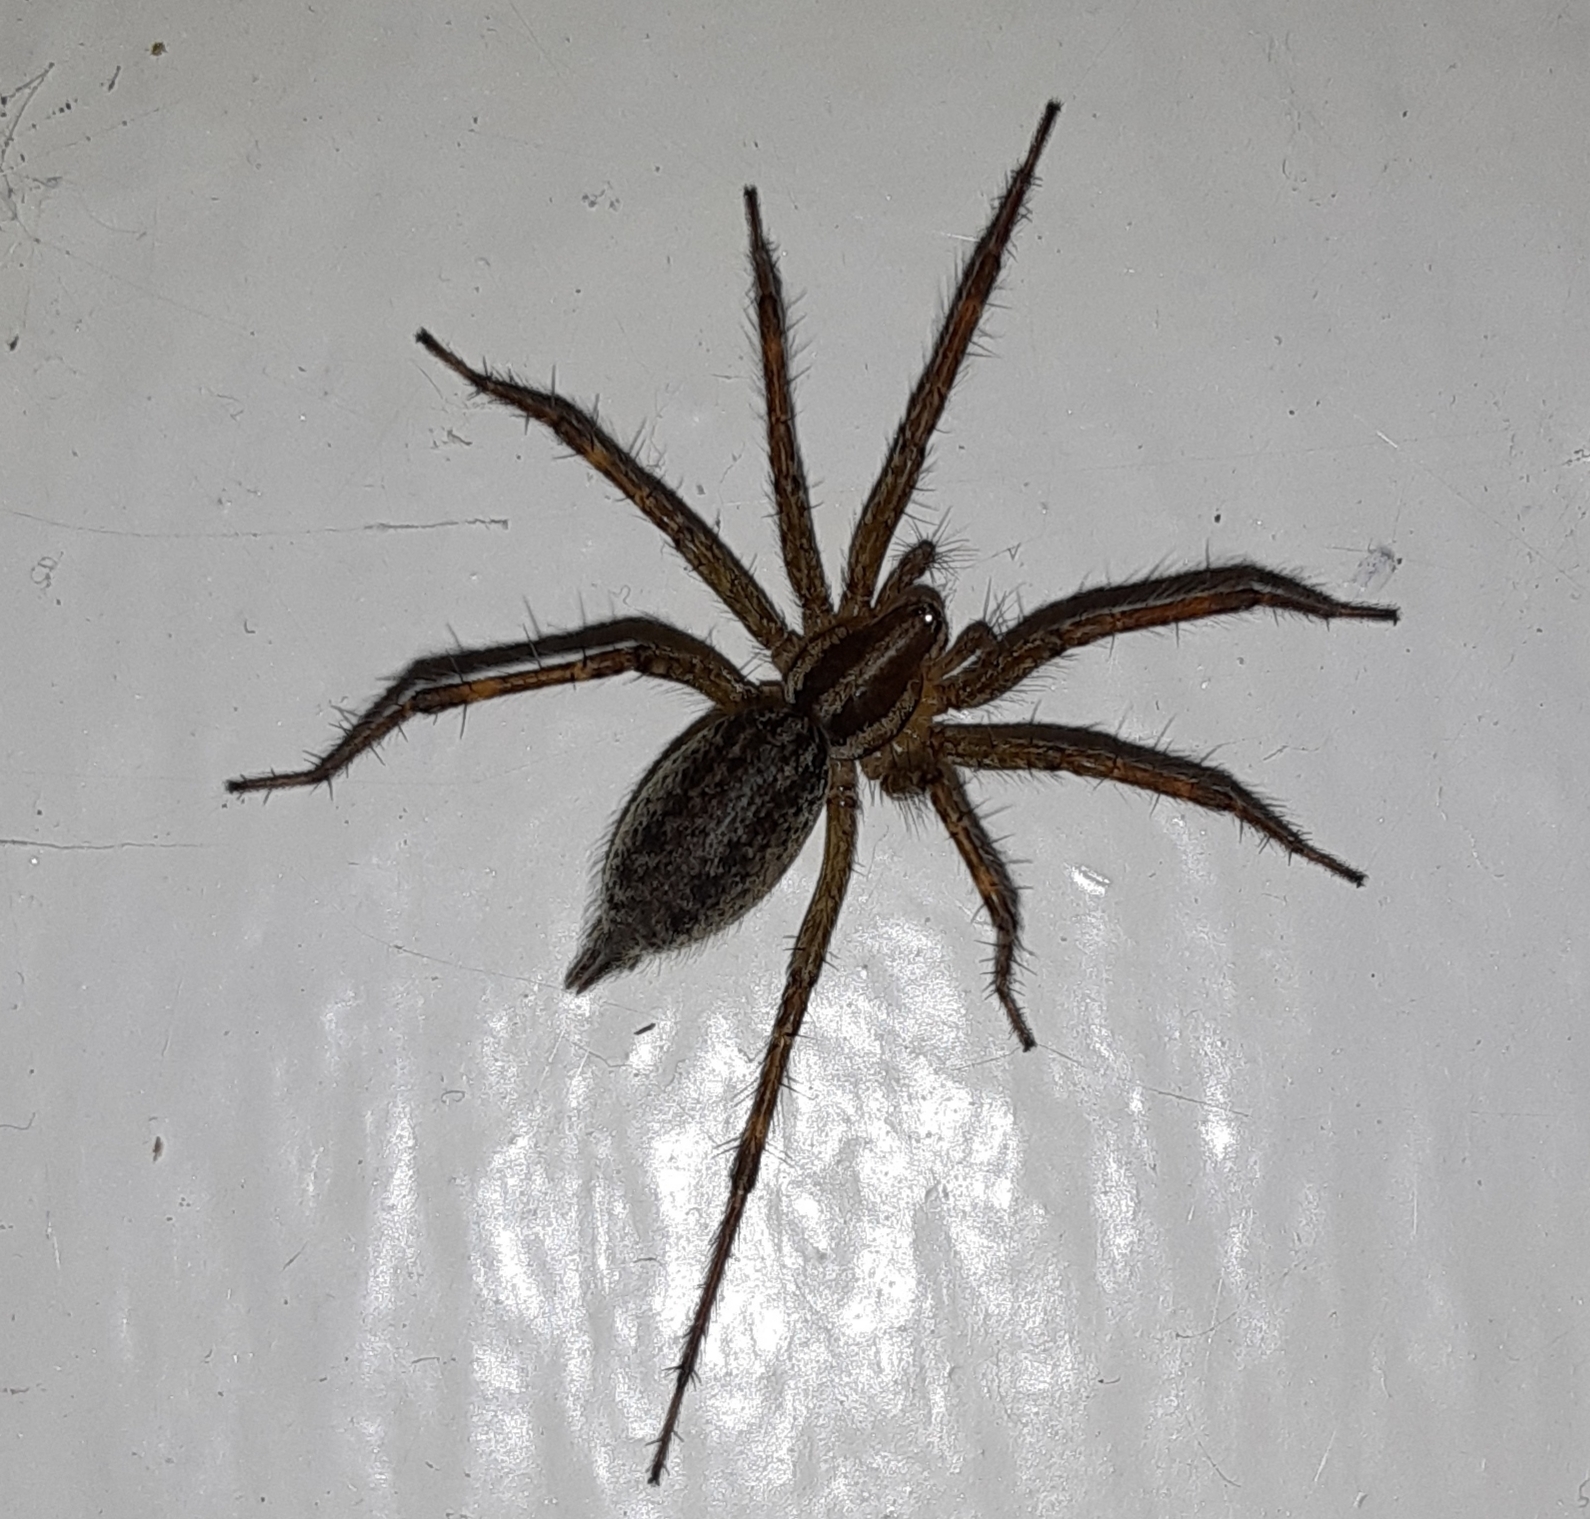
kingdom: Animalia
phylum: Arthropoda
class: Arachnida
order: Araneae
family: Agelenidae
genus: Agelenopsis
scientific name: Agelenopsis
